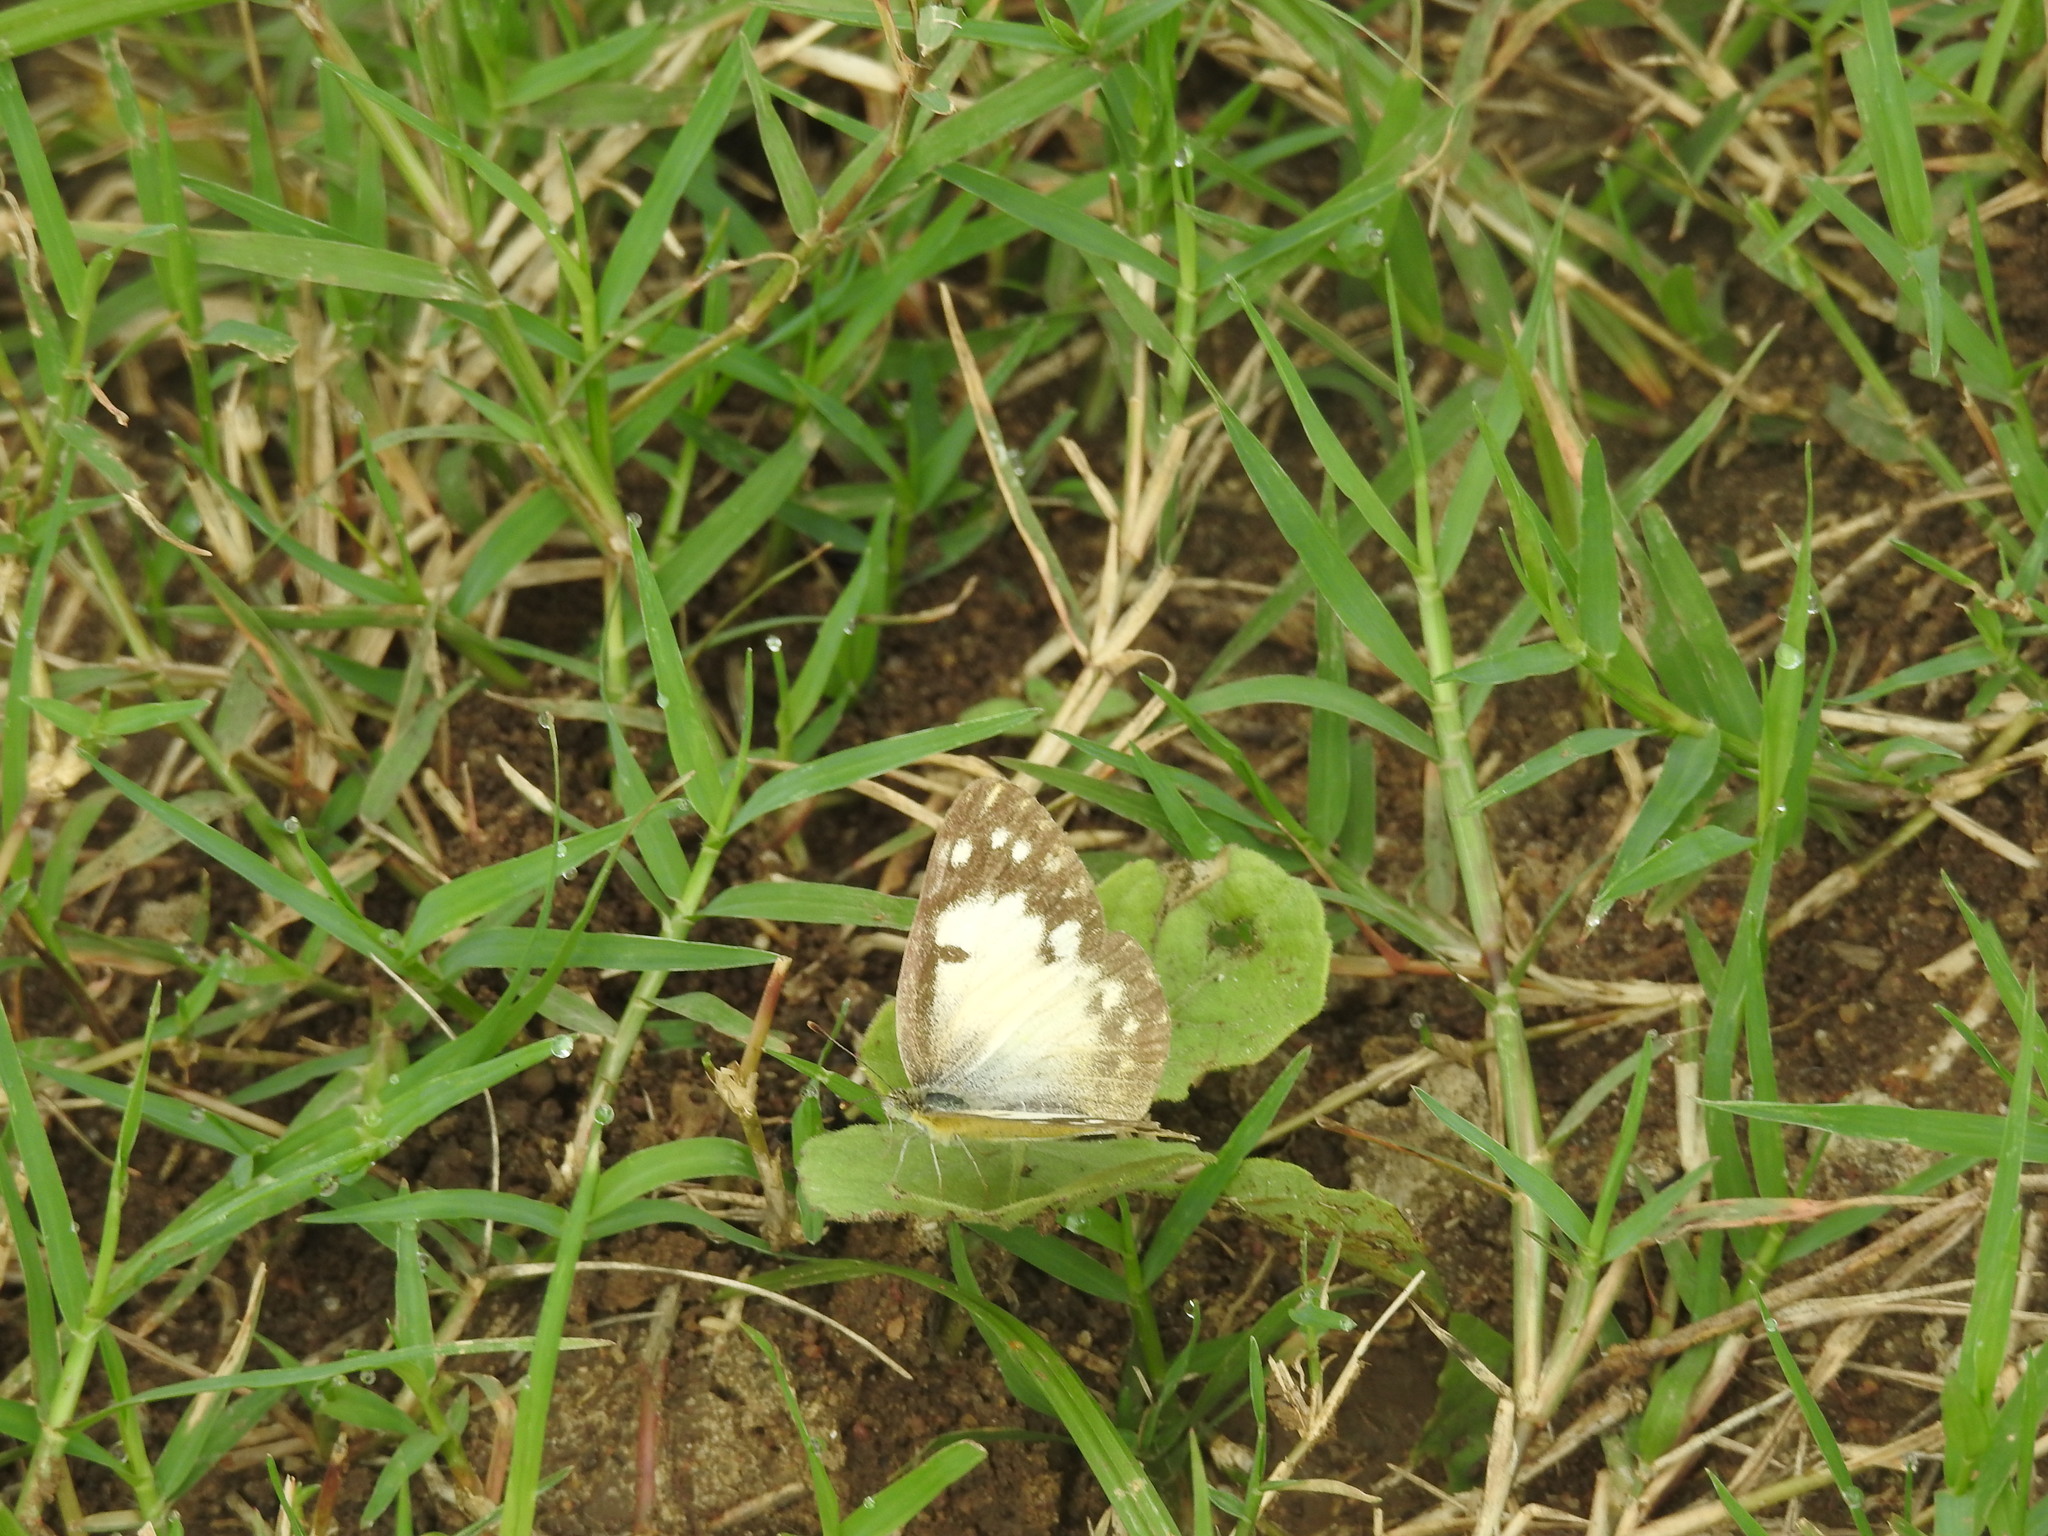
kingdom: Animalia
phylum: Arthropoda
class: Insecta
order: Lepidoptera
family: Pieridae
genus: Colotis
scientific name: Colotis amata
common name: Small salmon arab
